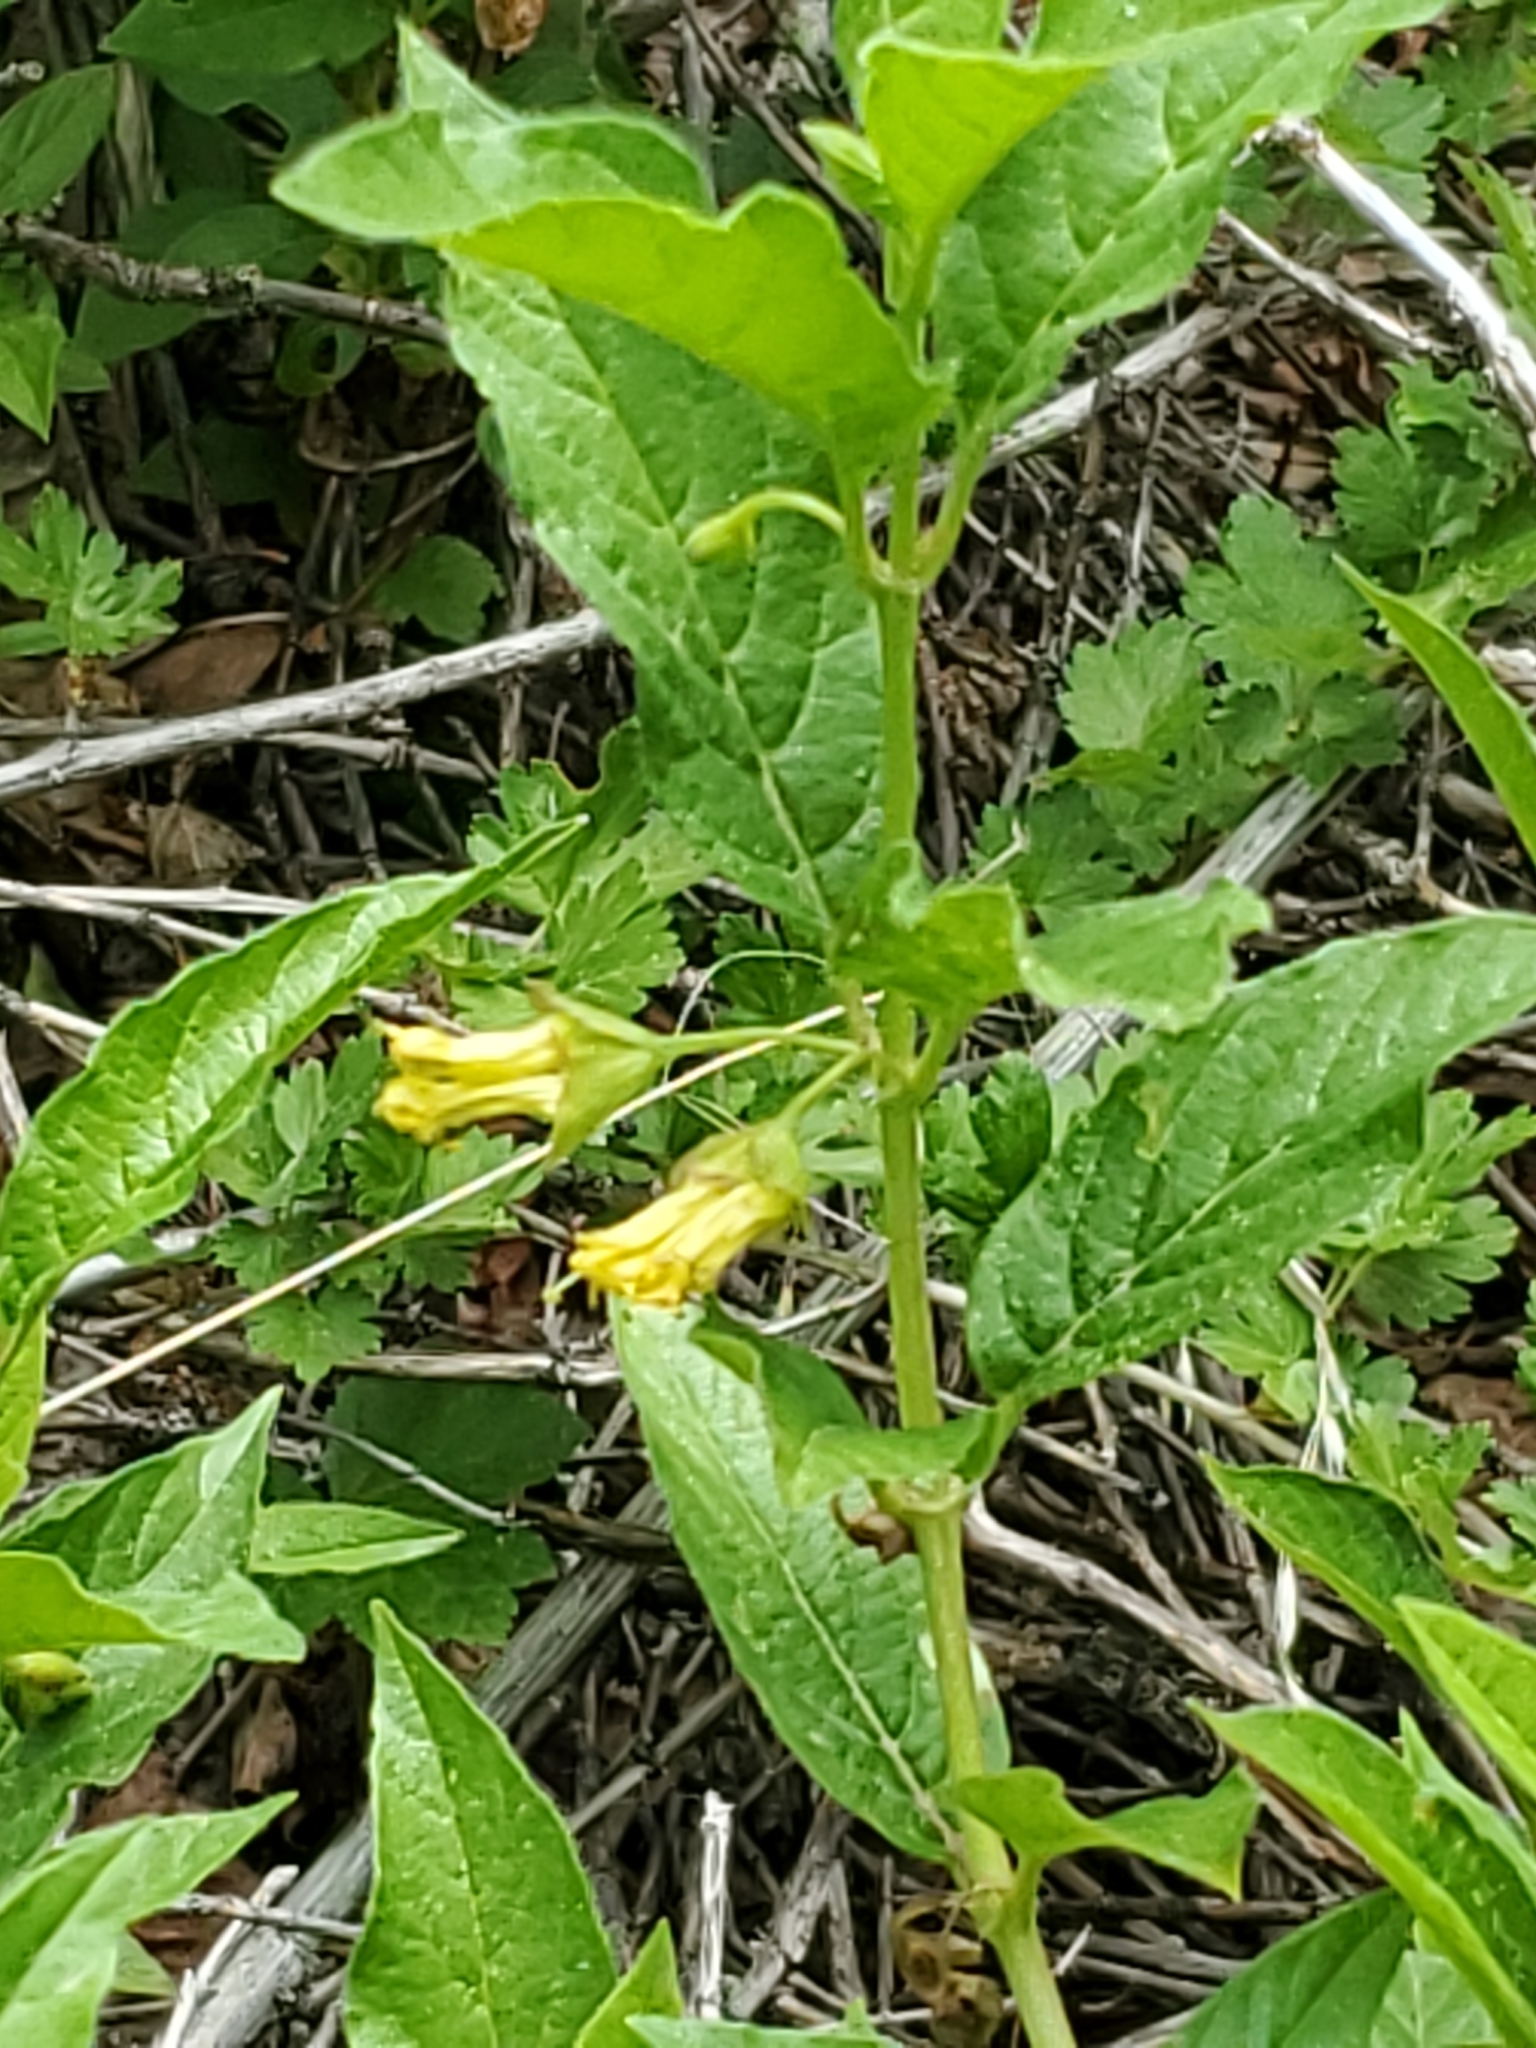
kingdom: Plantae
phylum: Tracheophyta
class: Magnoliopsida
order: Dipsacales
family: Caprifoliaceae
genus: Lonicera
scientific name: Lonicera involucrata
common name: Californian honeysuckle
